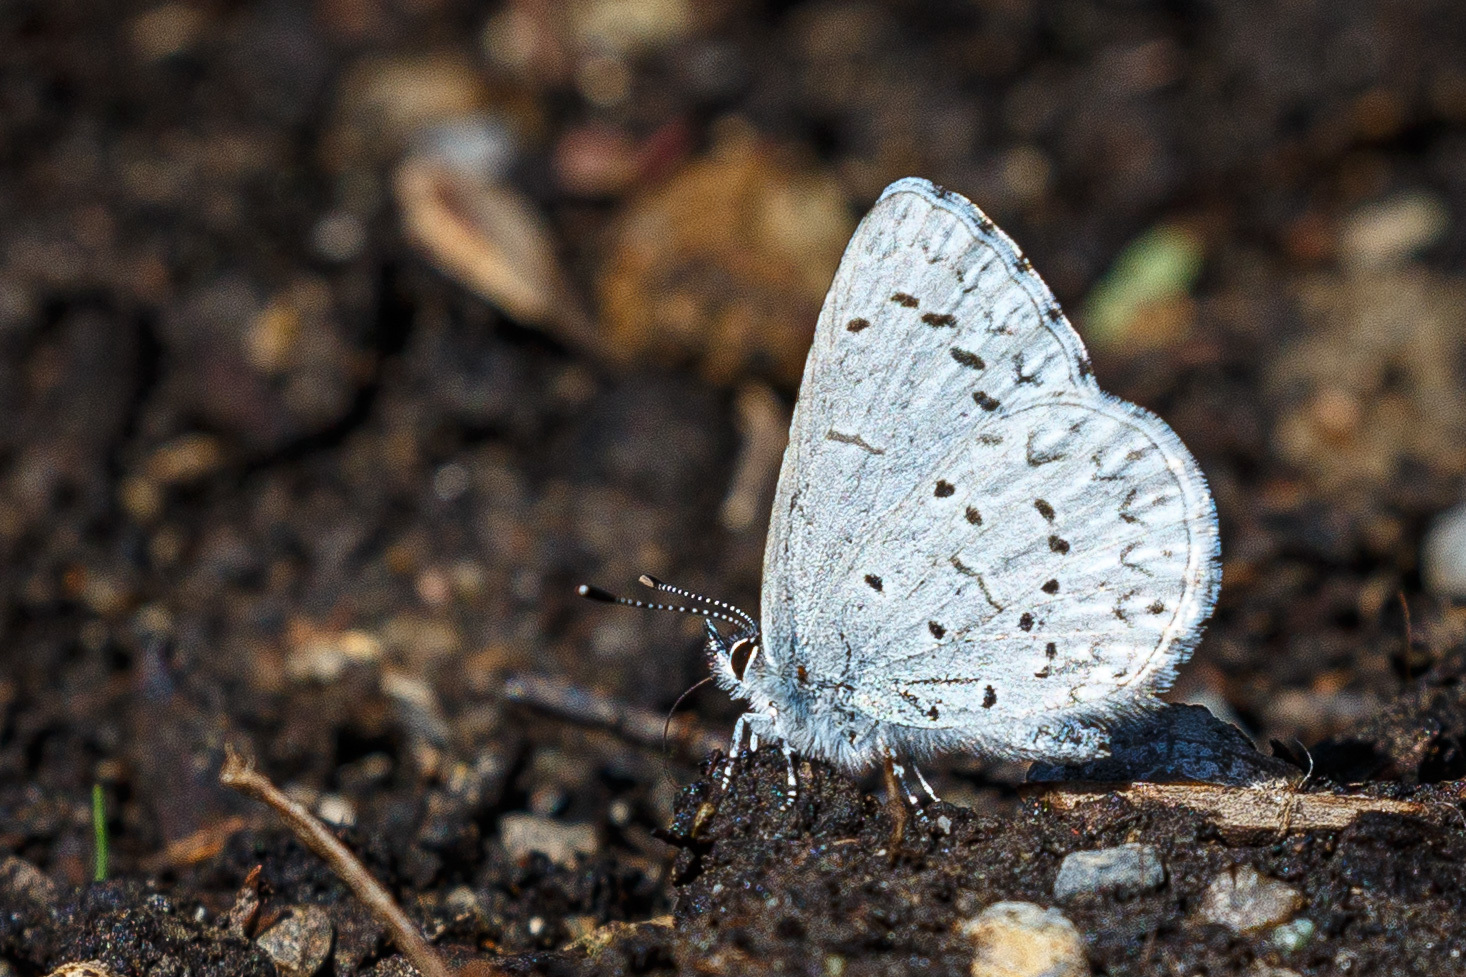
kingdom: Animalia
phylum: Arthropoda
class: Insecta
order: Lepidoptera
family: Lycaenidae
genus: Celastrina
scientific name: Celastrina ladon
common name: Spring azure
